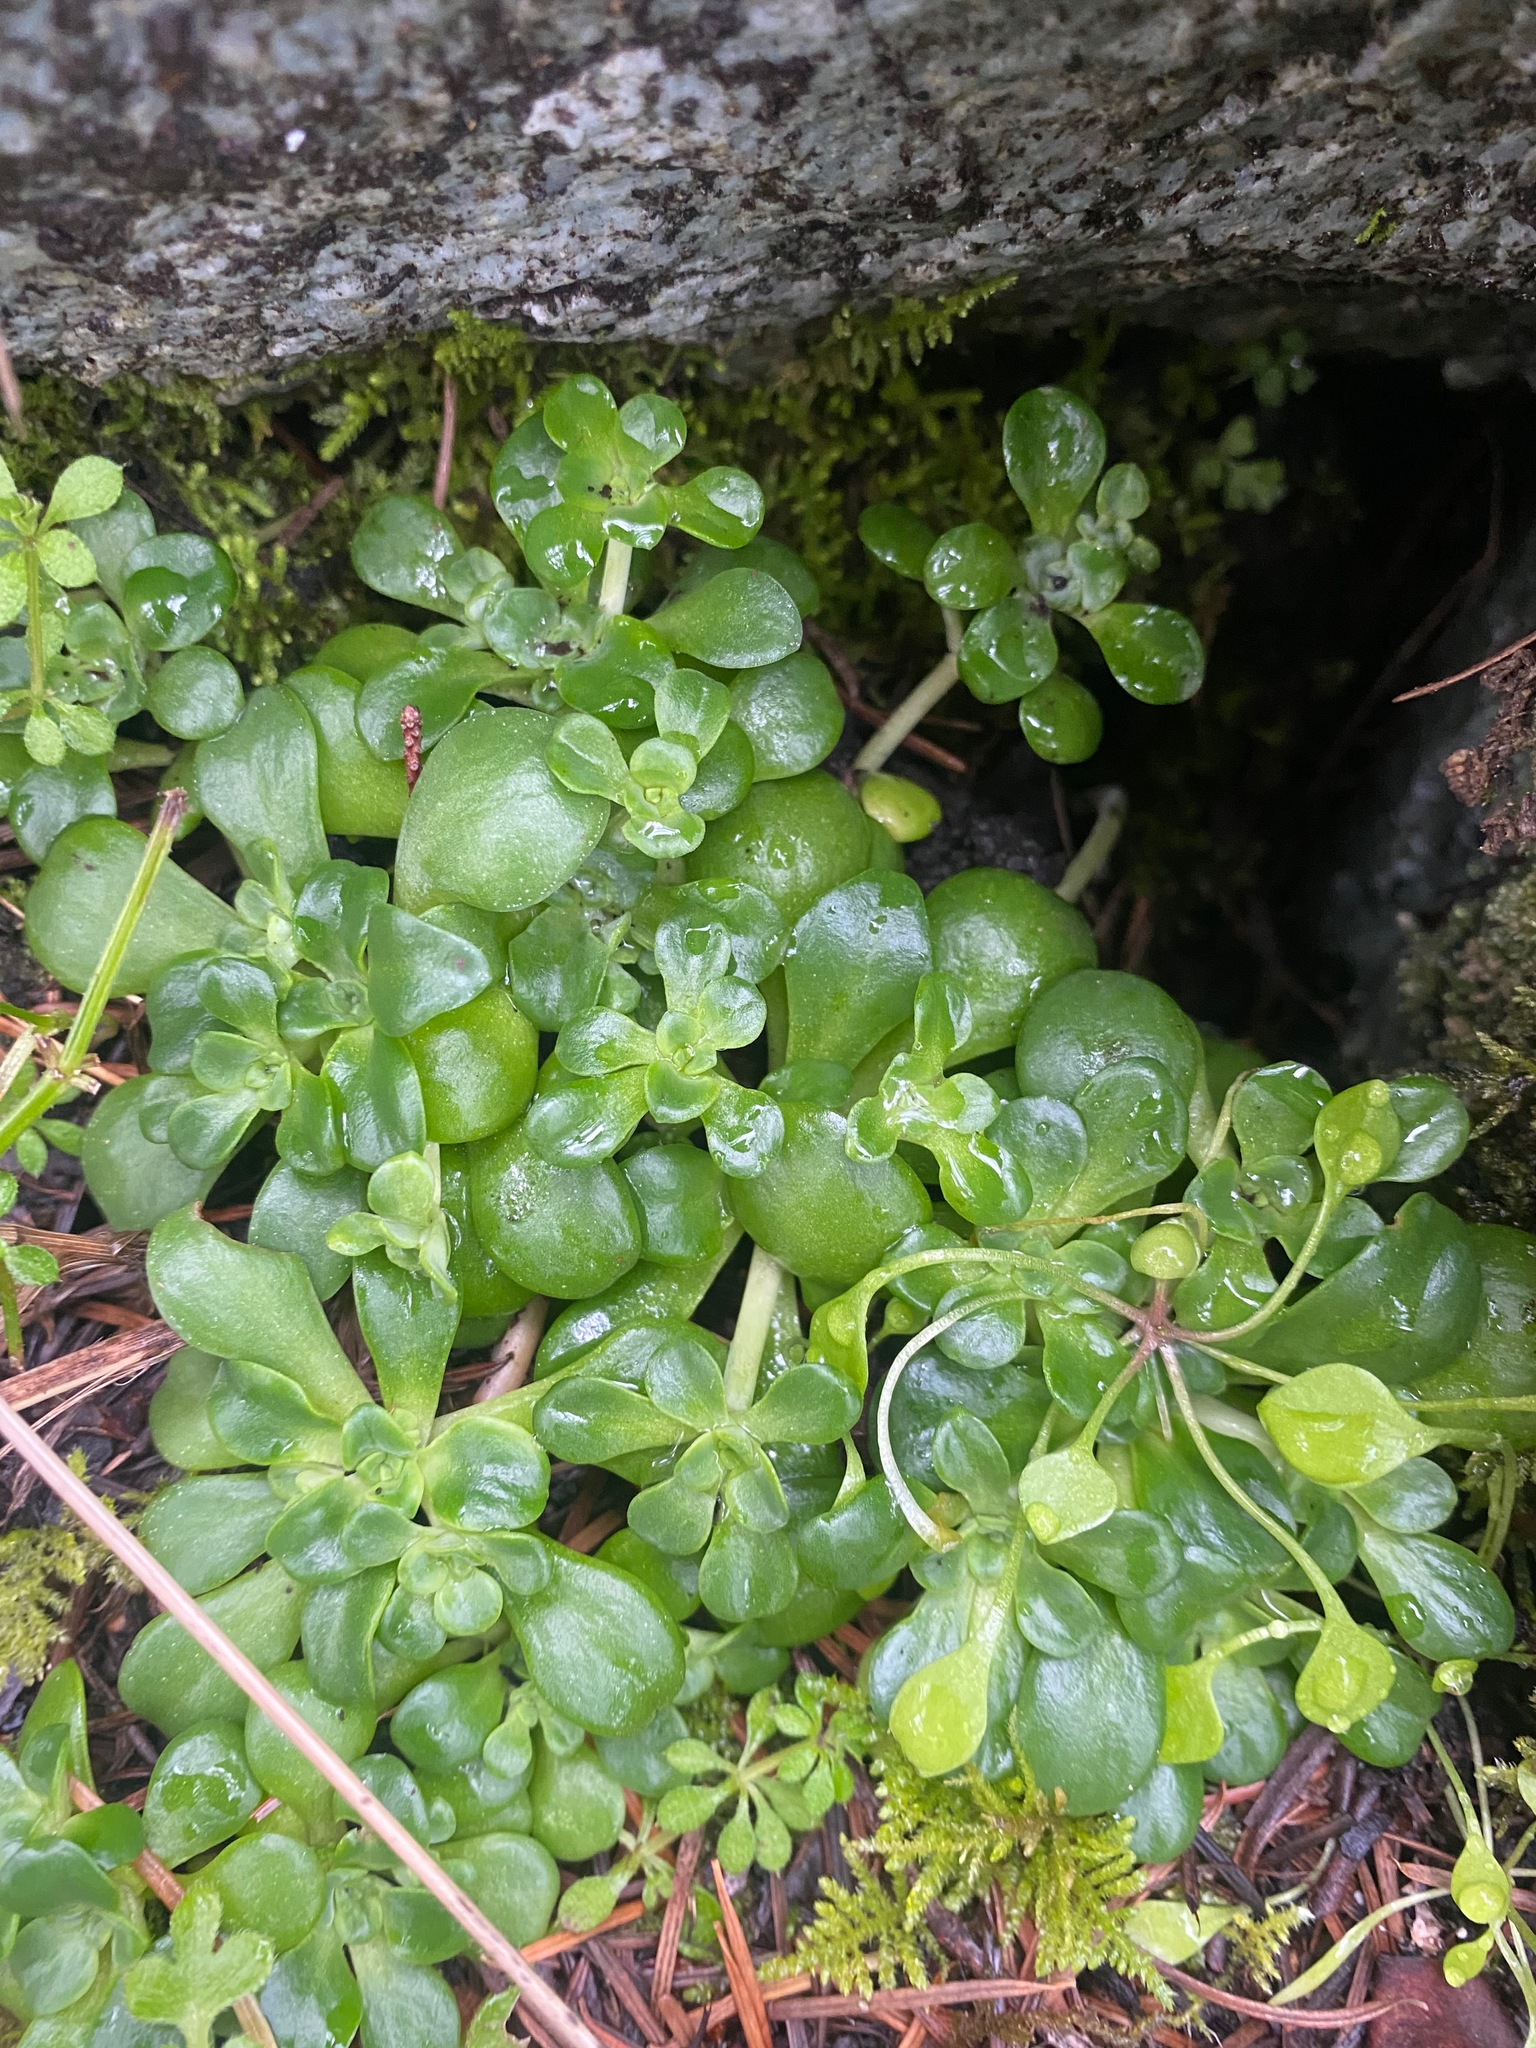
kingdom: Plantae
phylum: Tracheophyta
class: Magnoliopsida
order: Saxifragales
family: Crassulaceae
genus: Sedum
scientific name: Sedum spathulifolium
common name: Colorado stonecrop
